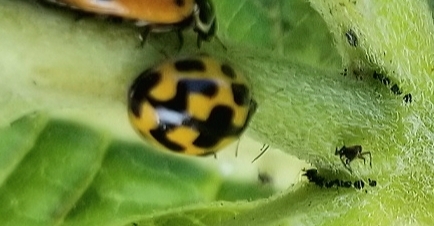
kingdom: Animalia
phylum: Arthropoda
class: Insecta
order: Coleoptera
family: Coccinellidae
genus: Propylaea
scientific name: Propylaea quatuordecimpunctata
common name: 14-spotted ladybird beetle
